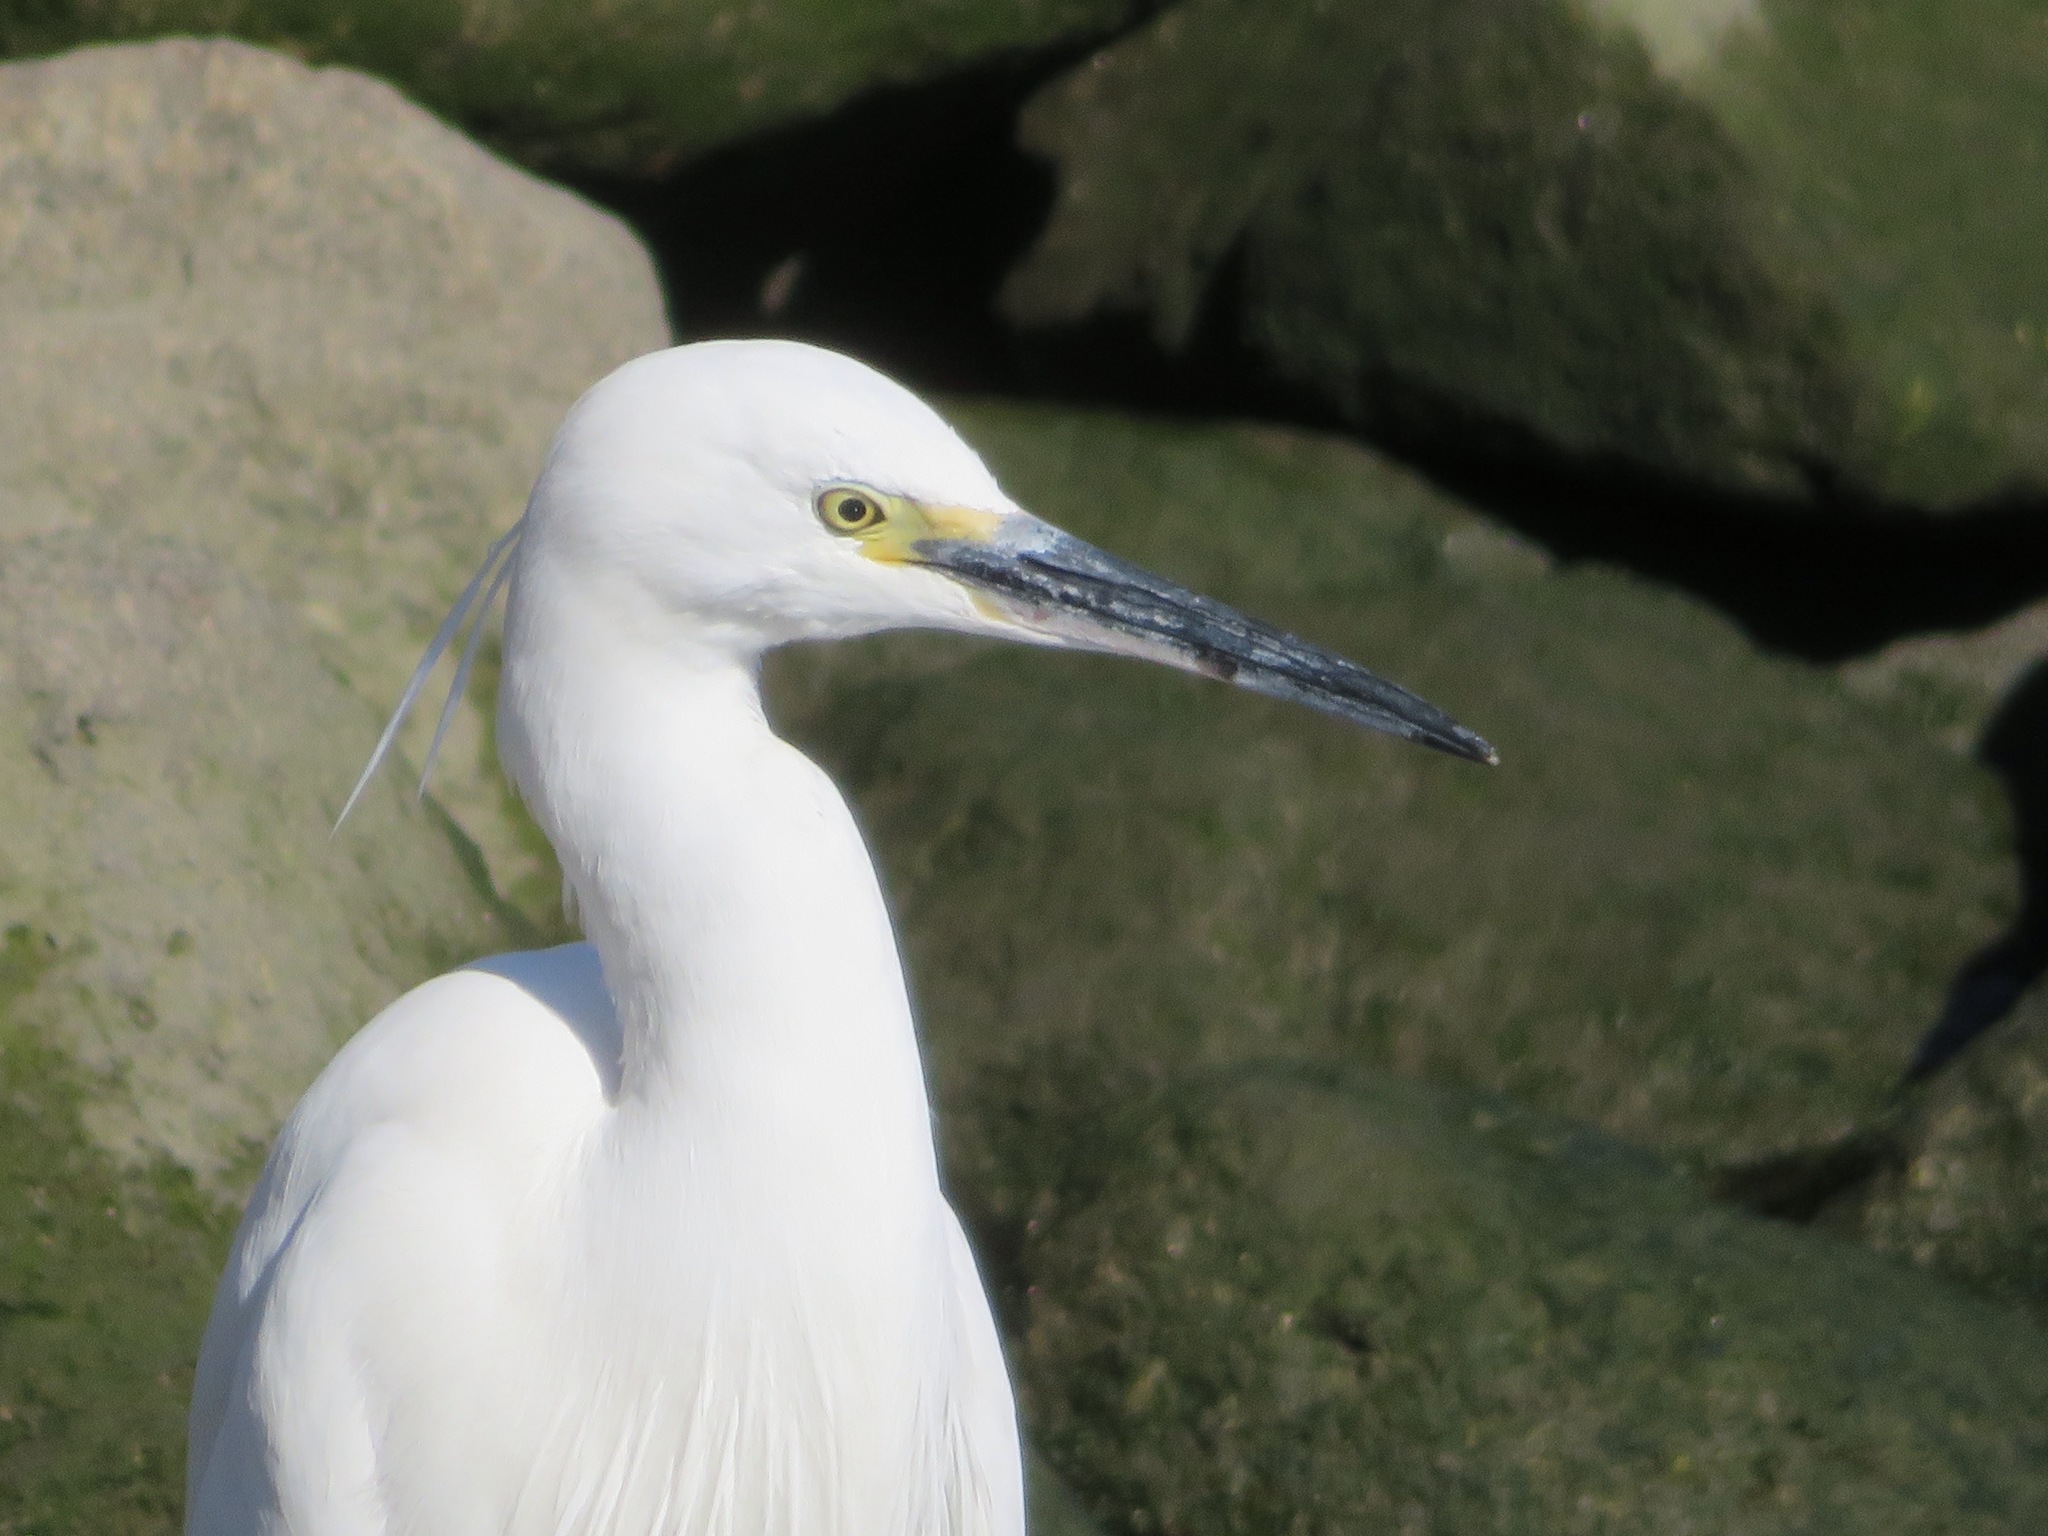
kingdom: Animalia
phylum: Chordata
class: Aves
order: Pelecaniformes
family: Ardeidae
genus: Egretta
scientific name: Egretta garzetta
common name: Little egret
